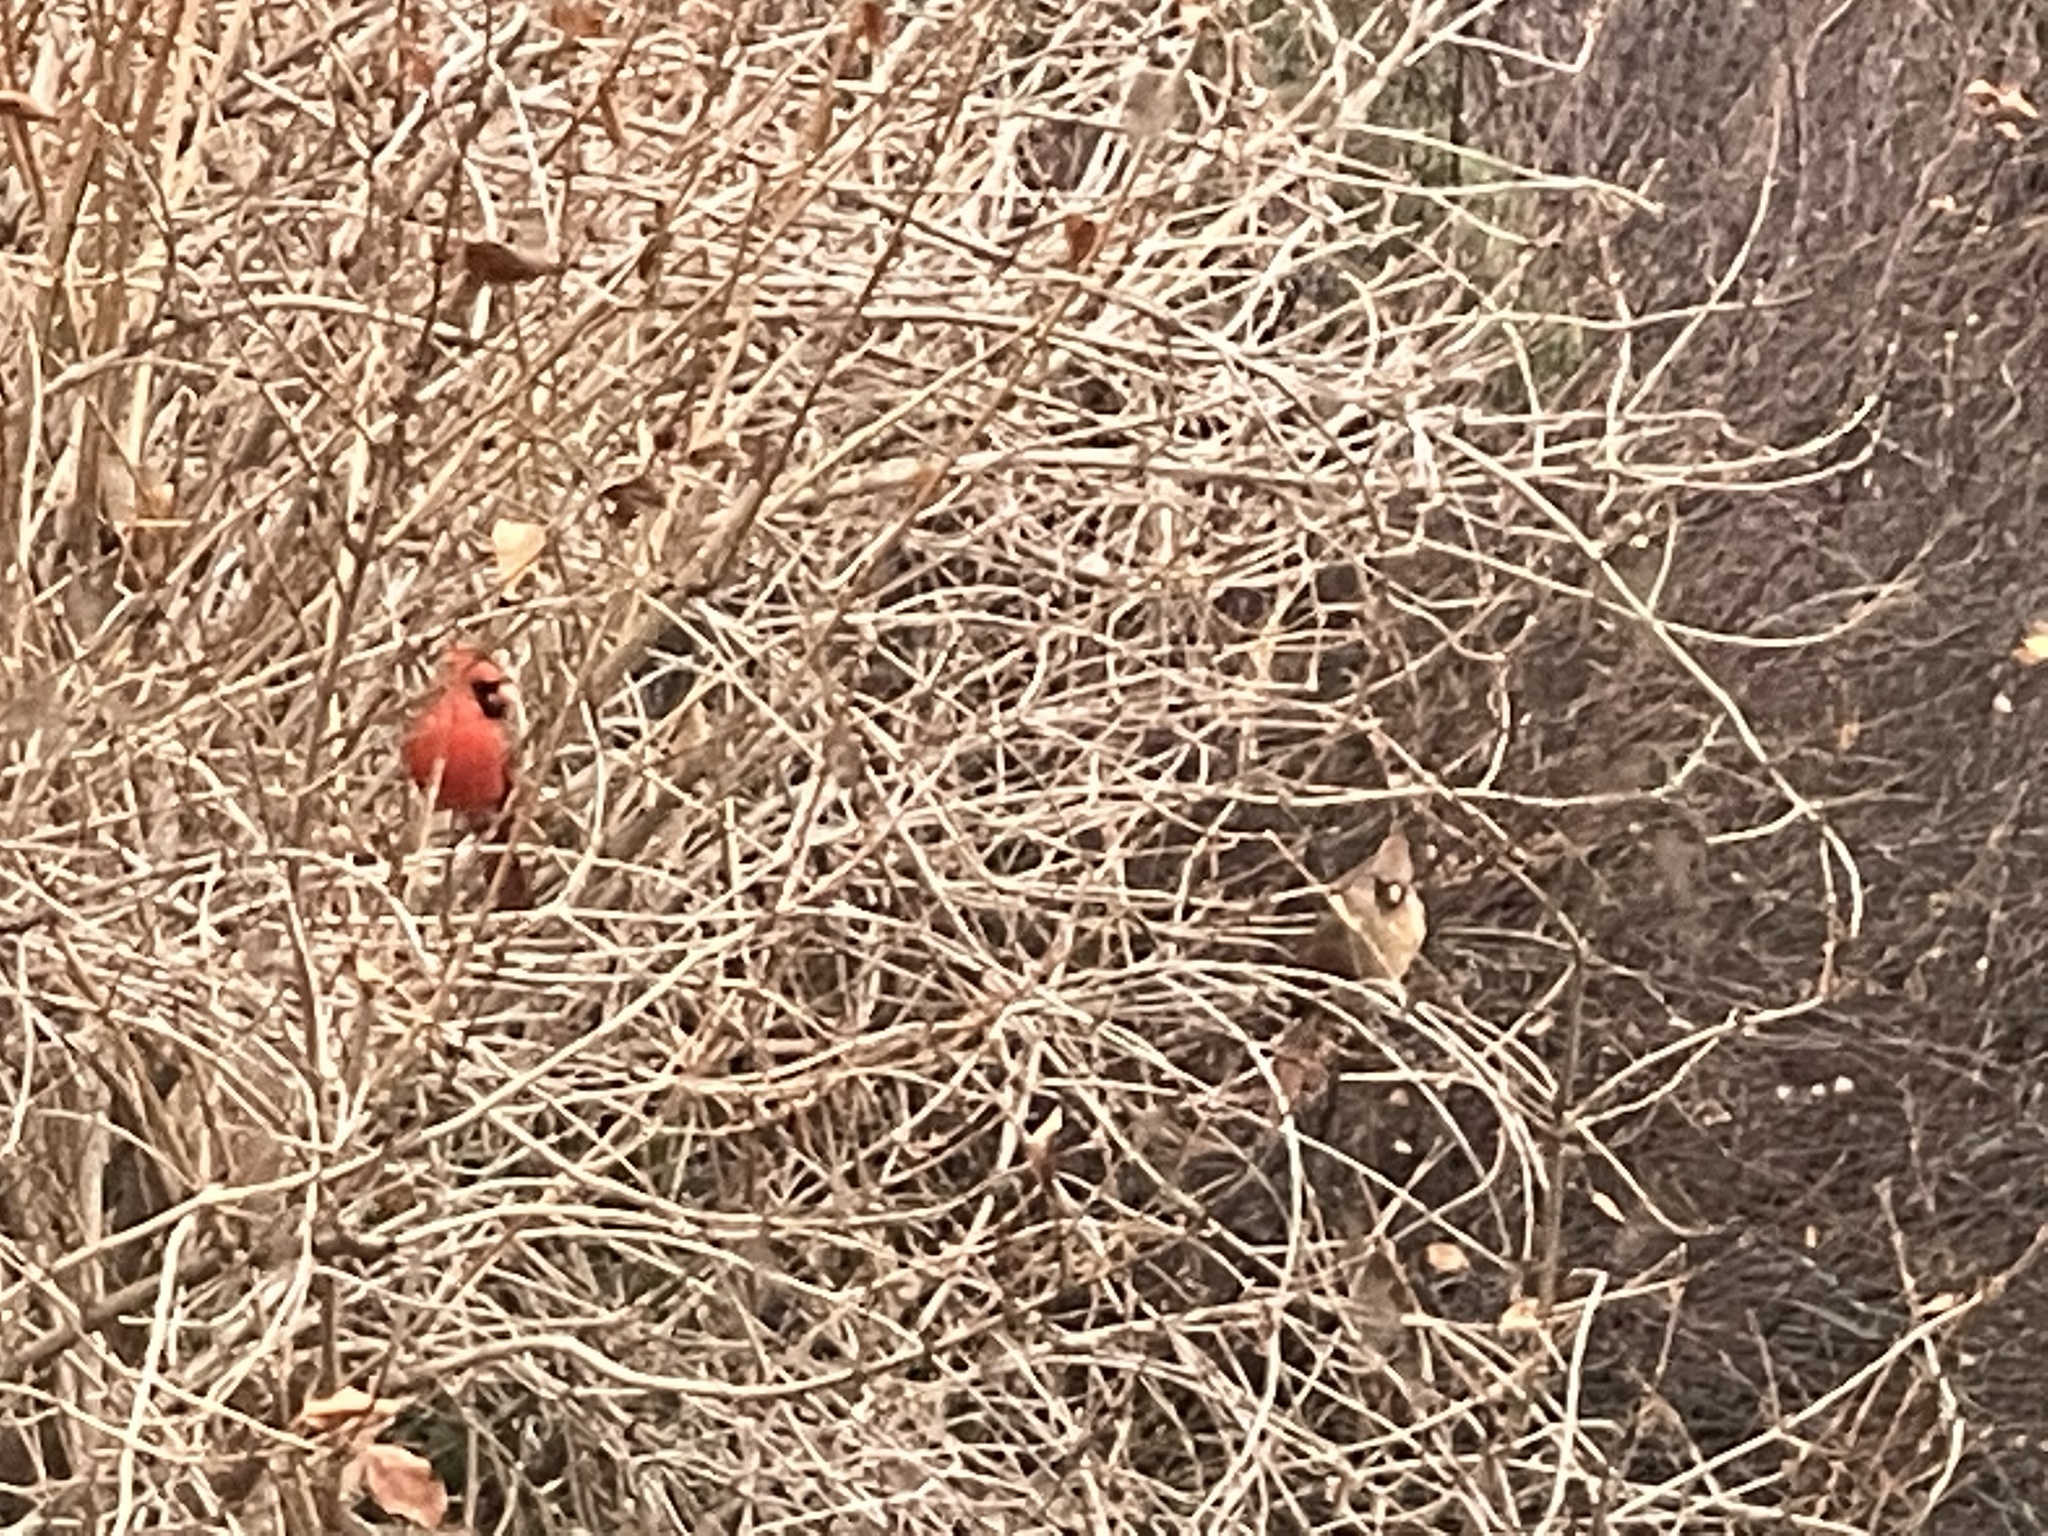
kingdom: Animalia
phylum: Chordata
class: Aves
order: Passeriformes
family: Cardinalidae
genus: Cardinalis
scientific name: Cardinalis cardinalis
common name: Northern cardinal
